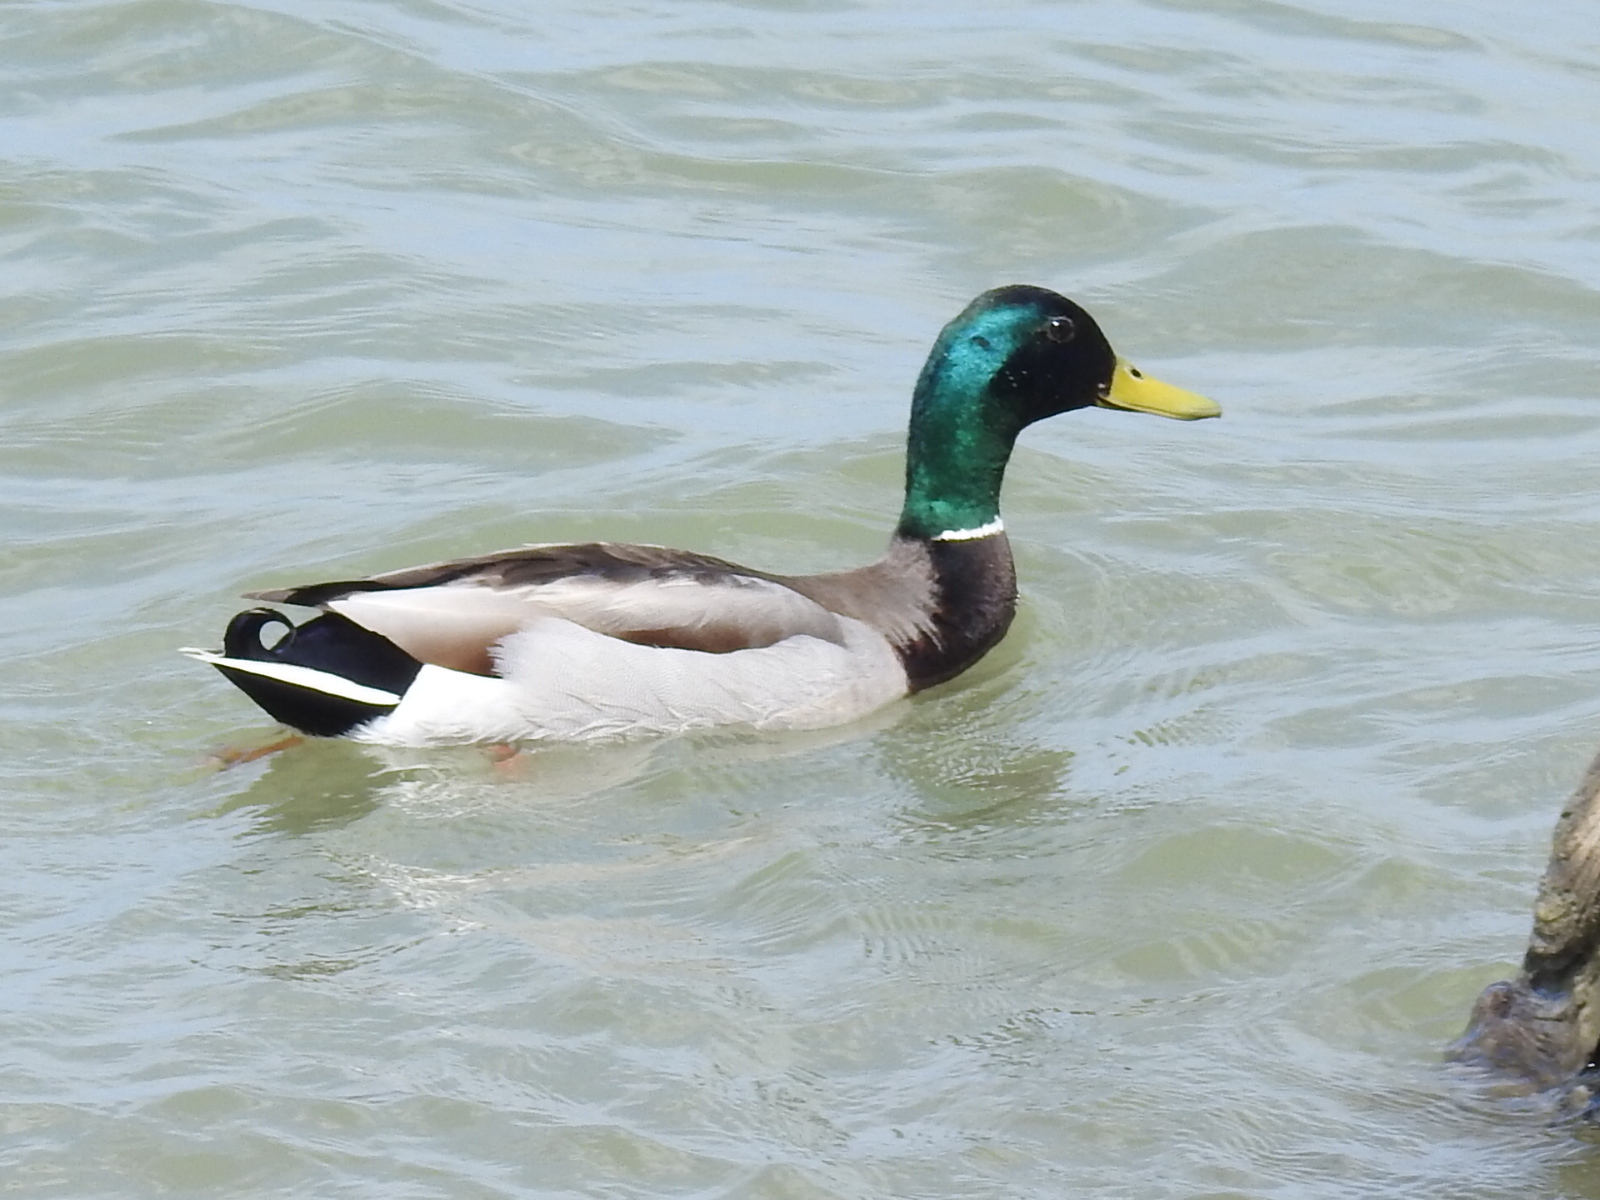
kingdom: Animalia
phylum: Chordata
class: Aves
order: Anseriformes
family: Anatidae
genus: Anas
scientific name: Anas platyrhynchos
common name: Mallard
